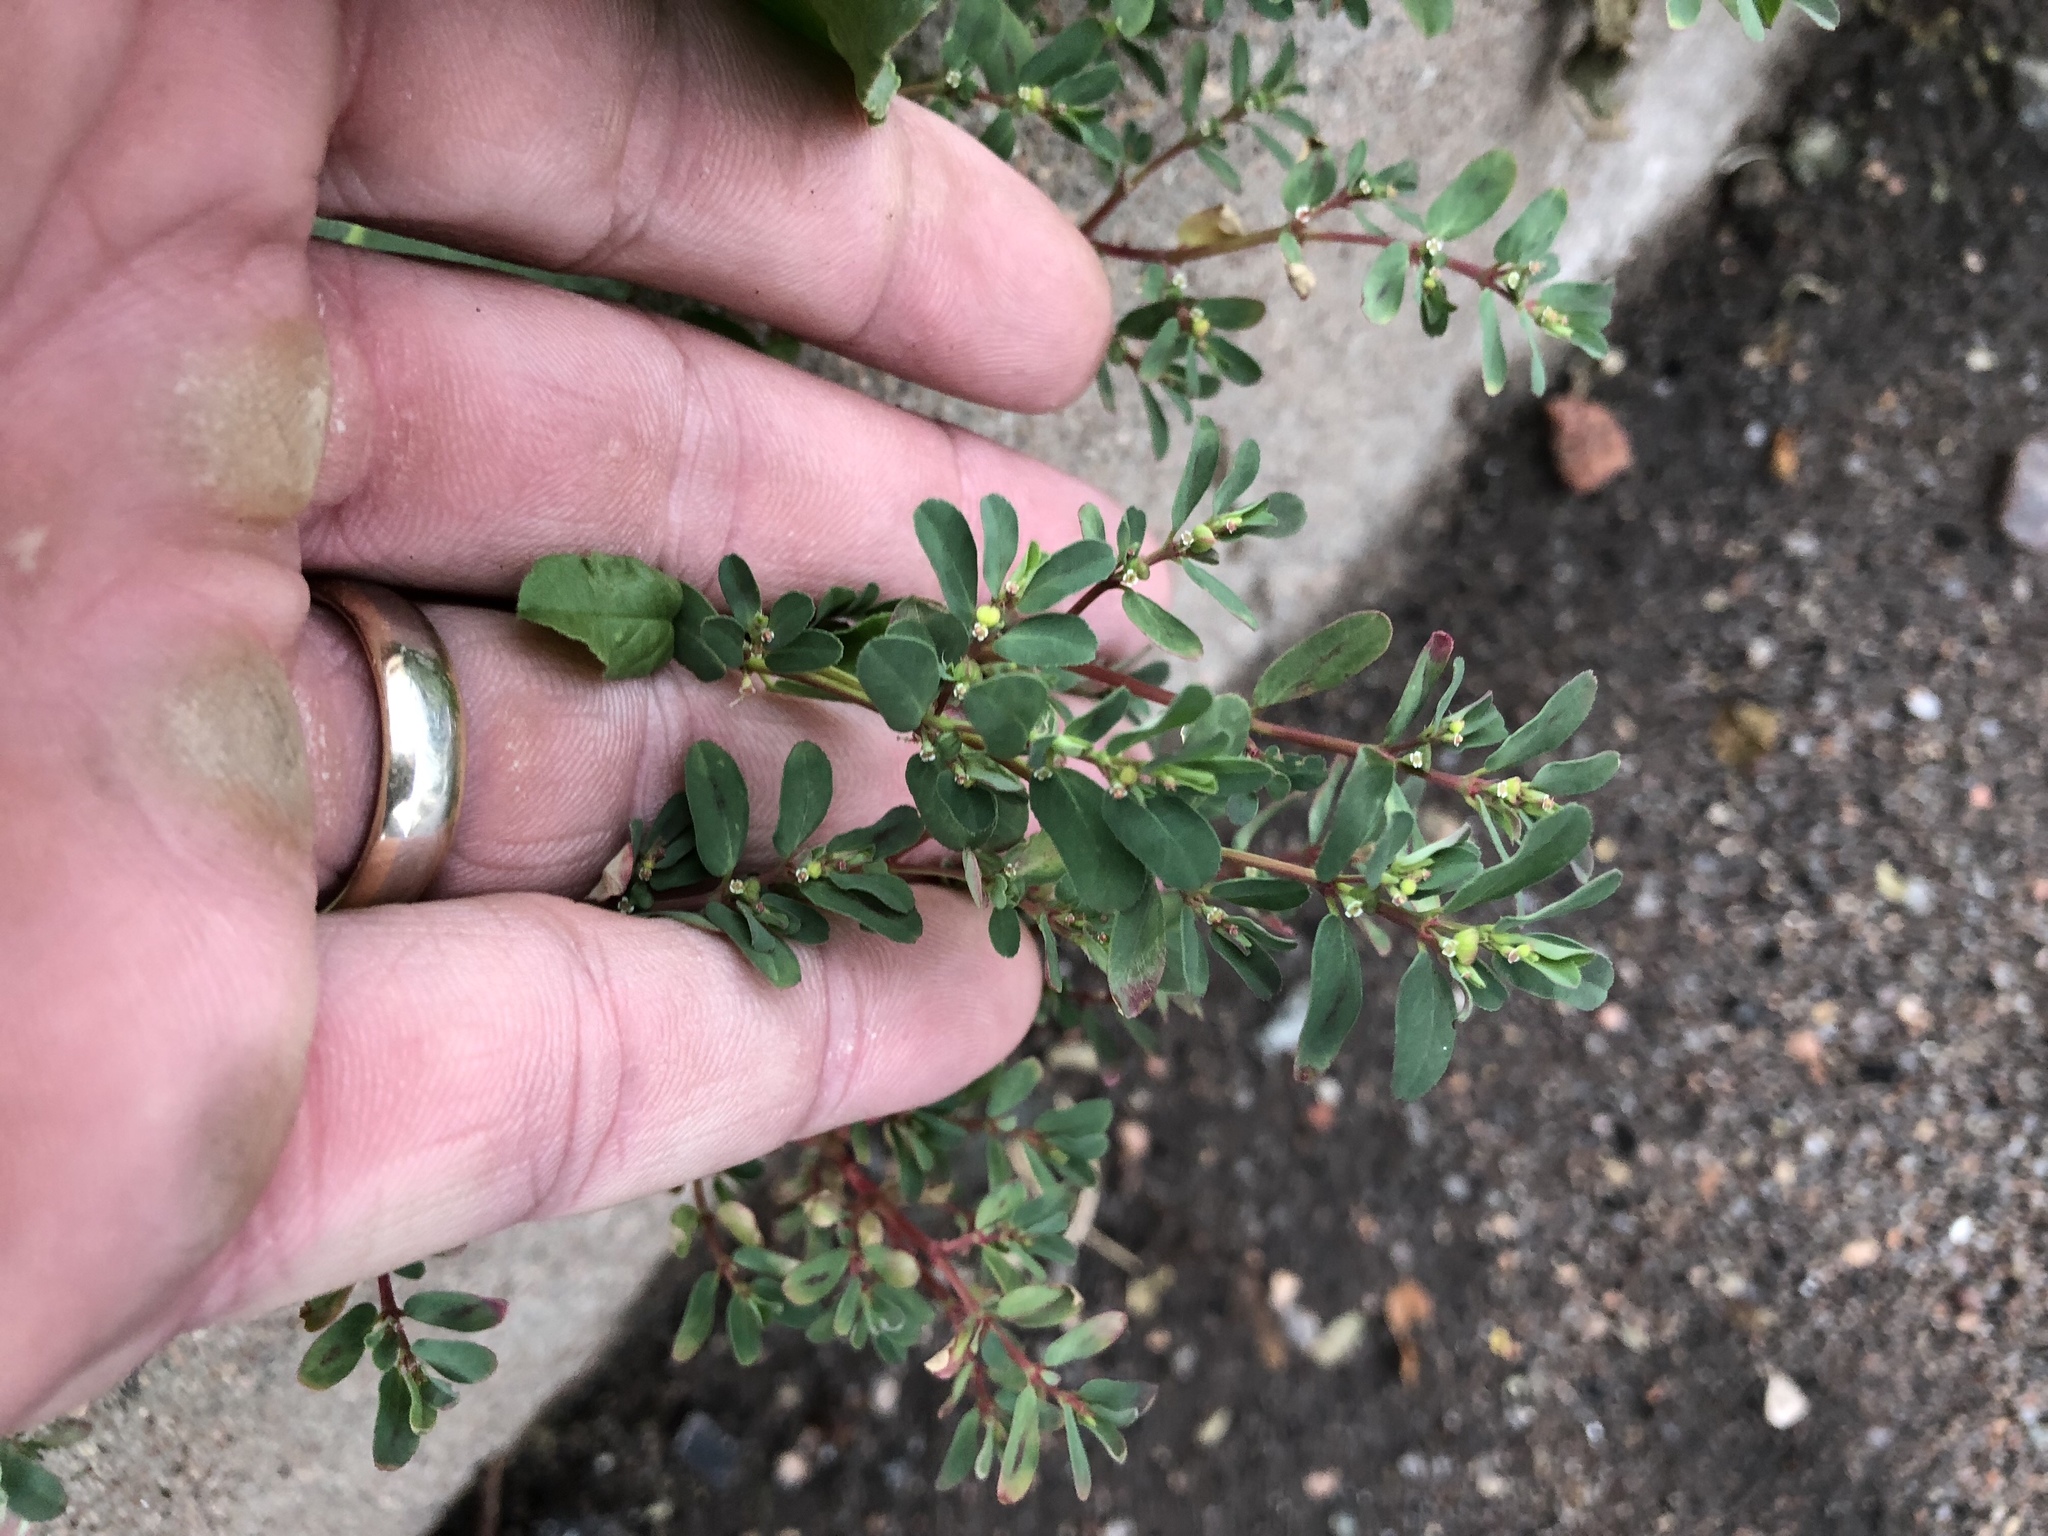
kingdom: Plantae
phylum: Tracheophyta
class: Magnoliopsida
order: Malpighiales
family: Euphorbiaceae
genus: Euphorbia
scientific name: Euphorbia serpillifolia
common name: Thyme-leaf spurge
